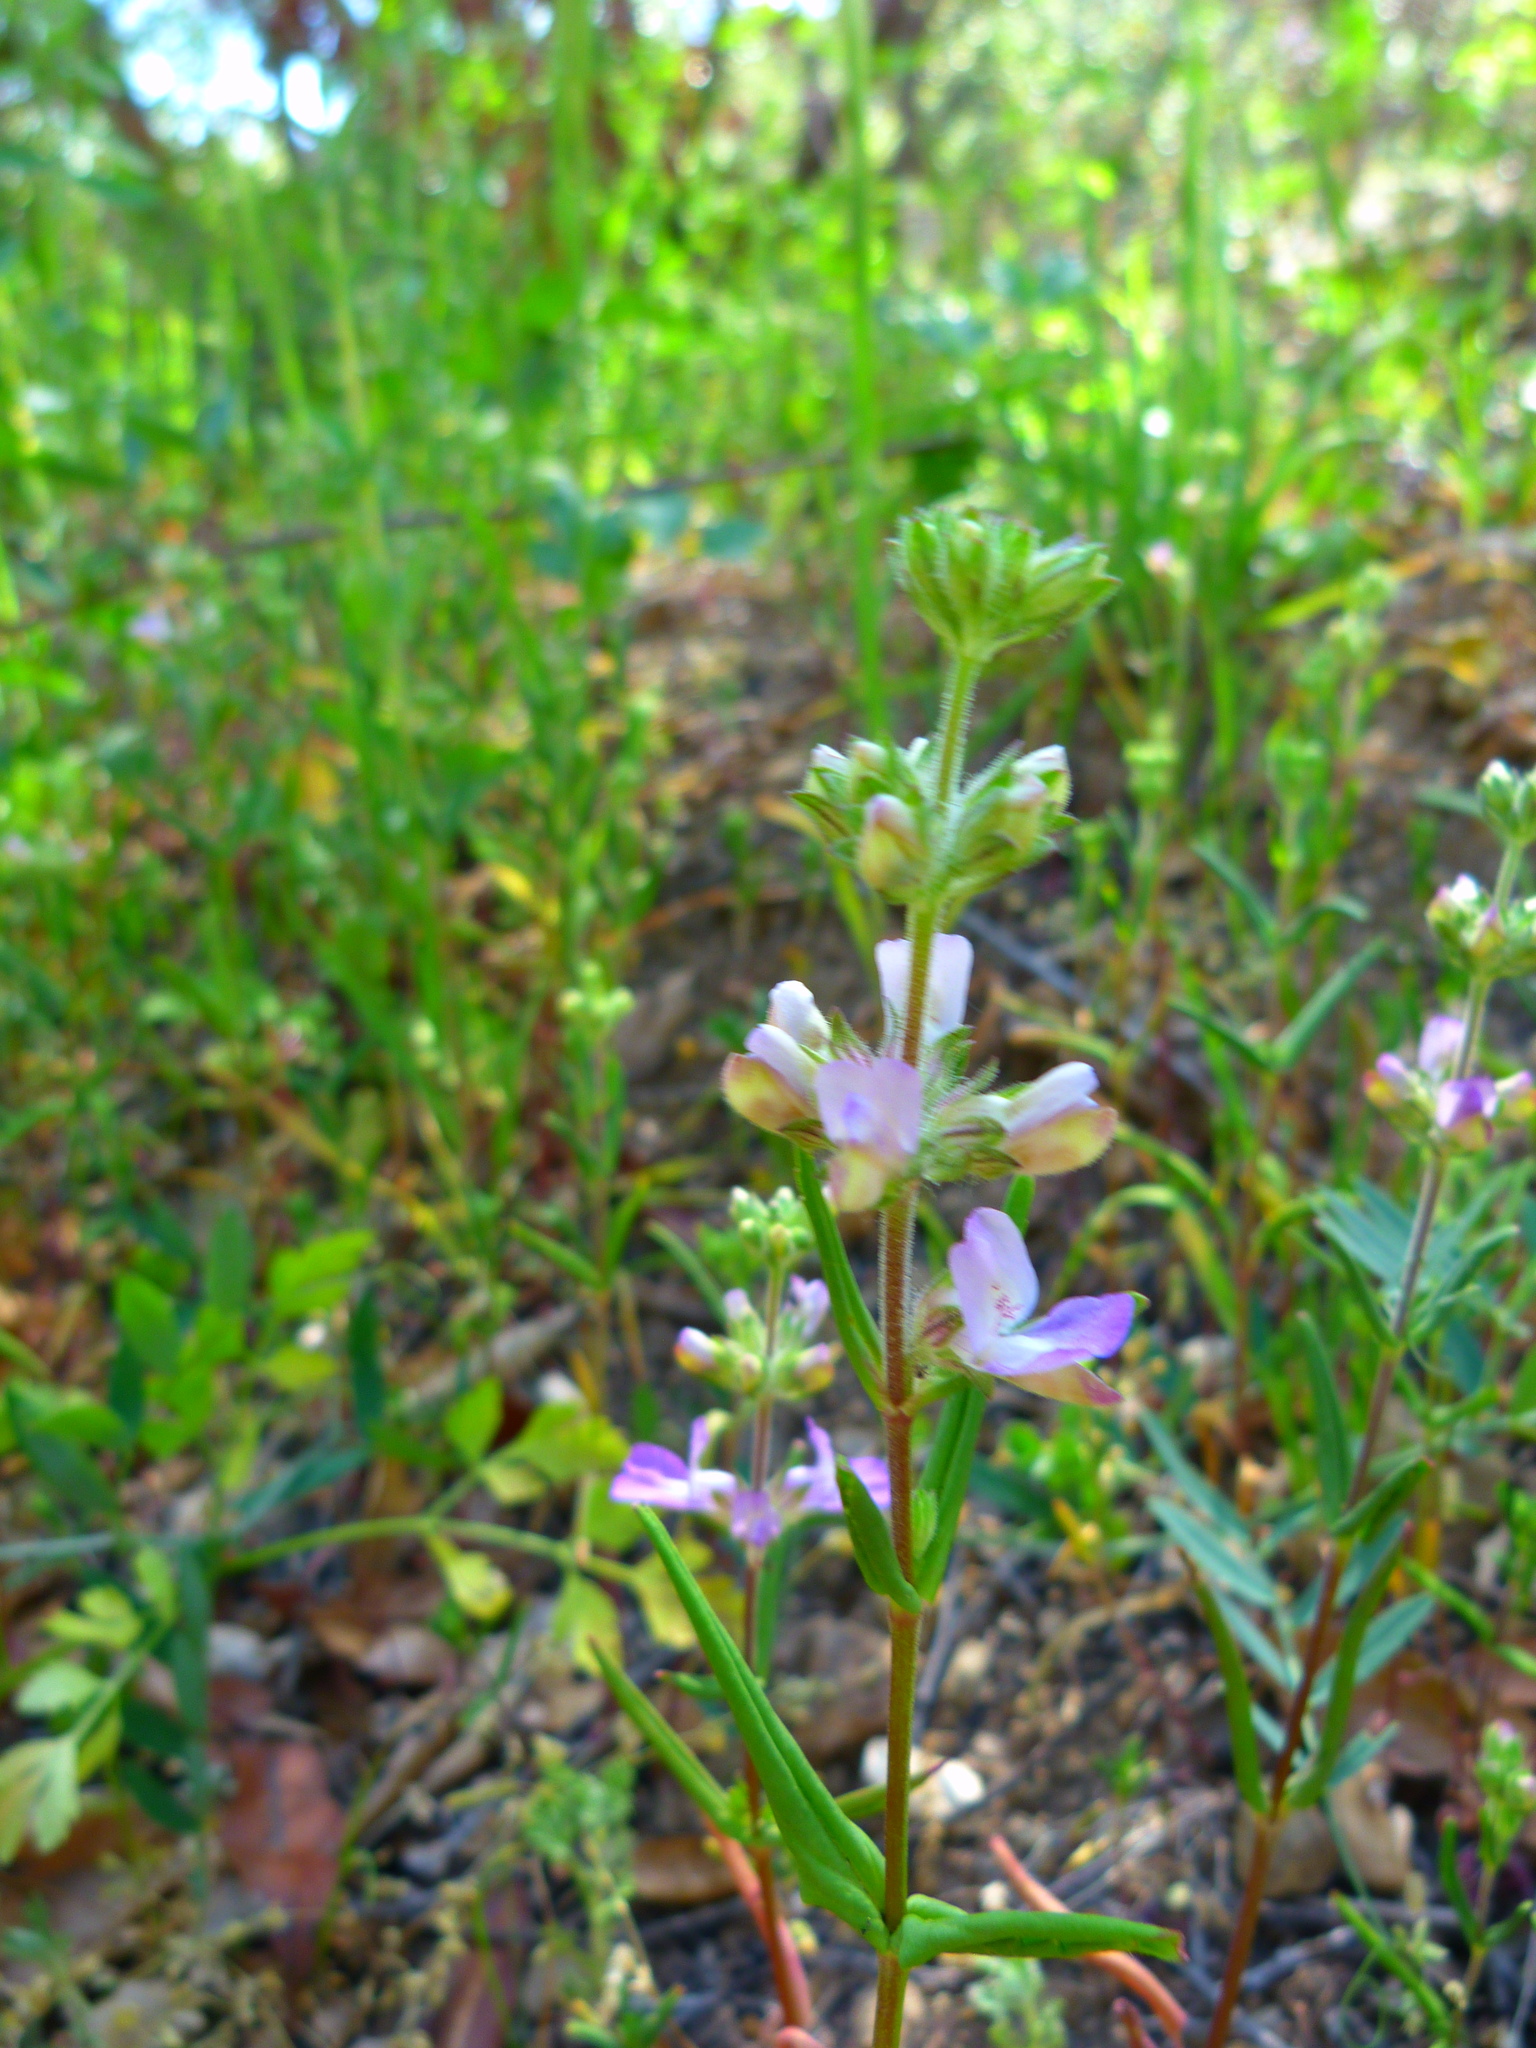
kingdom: Plantae
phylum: Tracheophyta
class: Magnoliopsida
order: Lamiales
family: Plantaginaceae
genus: Collinsia
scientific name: Collinsia bartsiifolia
